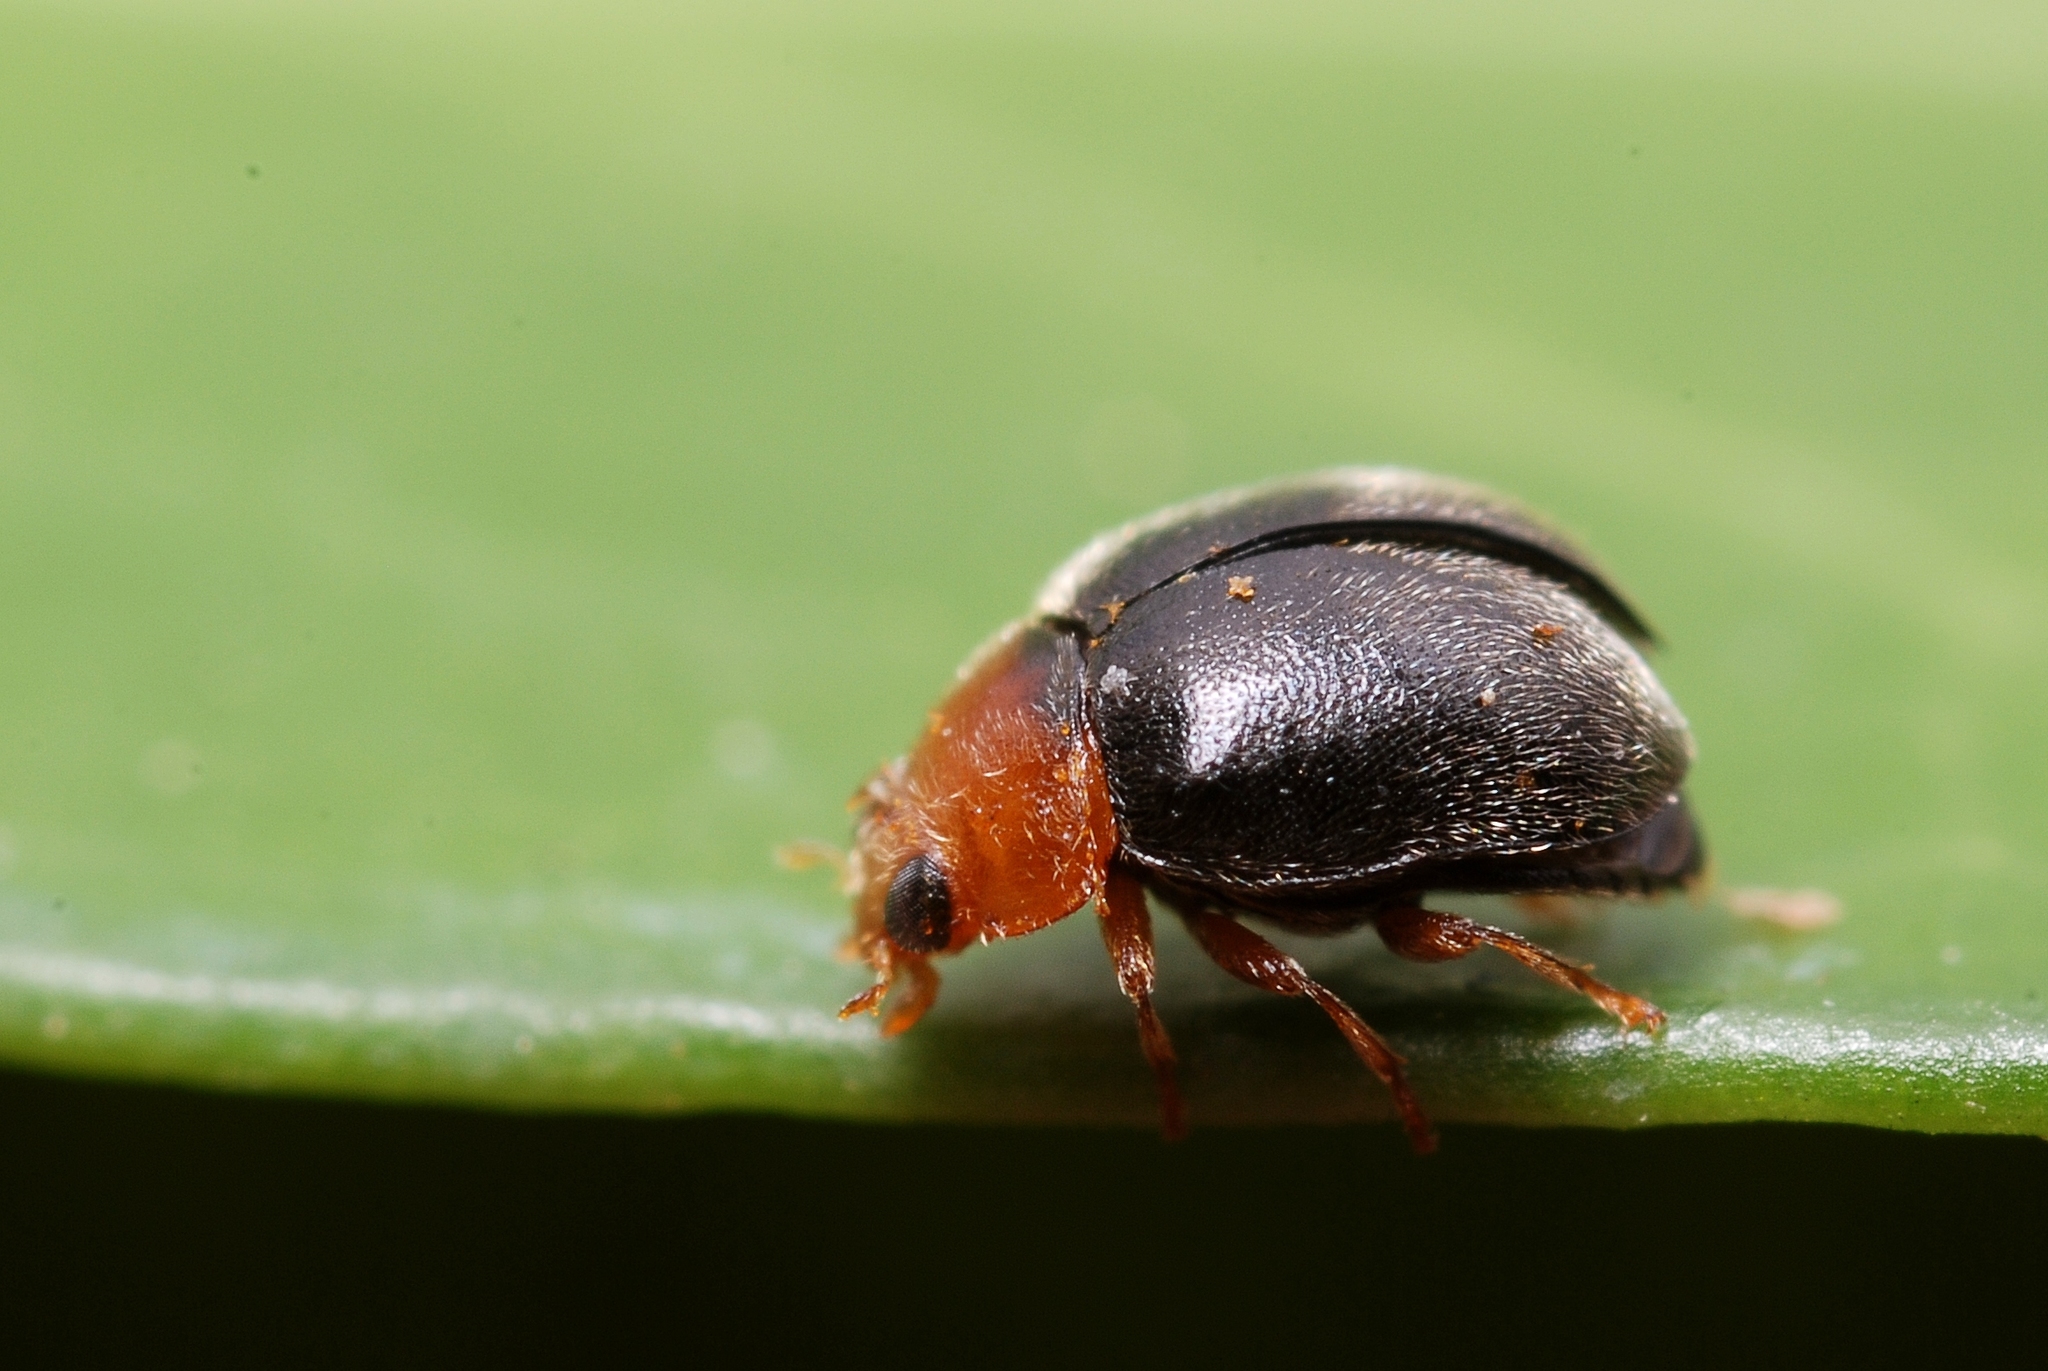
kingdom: Animalia
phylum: Arthropoda
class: Insecta
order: Coleoptera
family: Coccinellidae
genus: Scymnus
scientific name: Scymnus rubromaculatus
